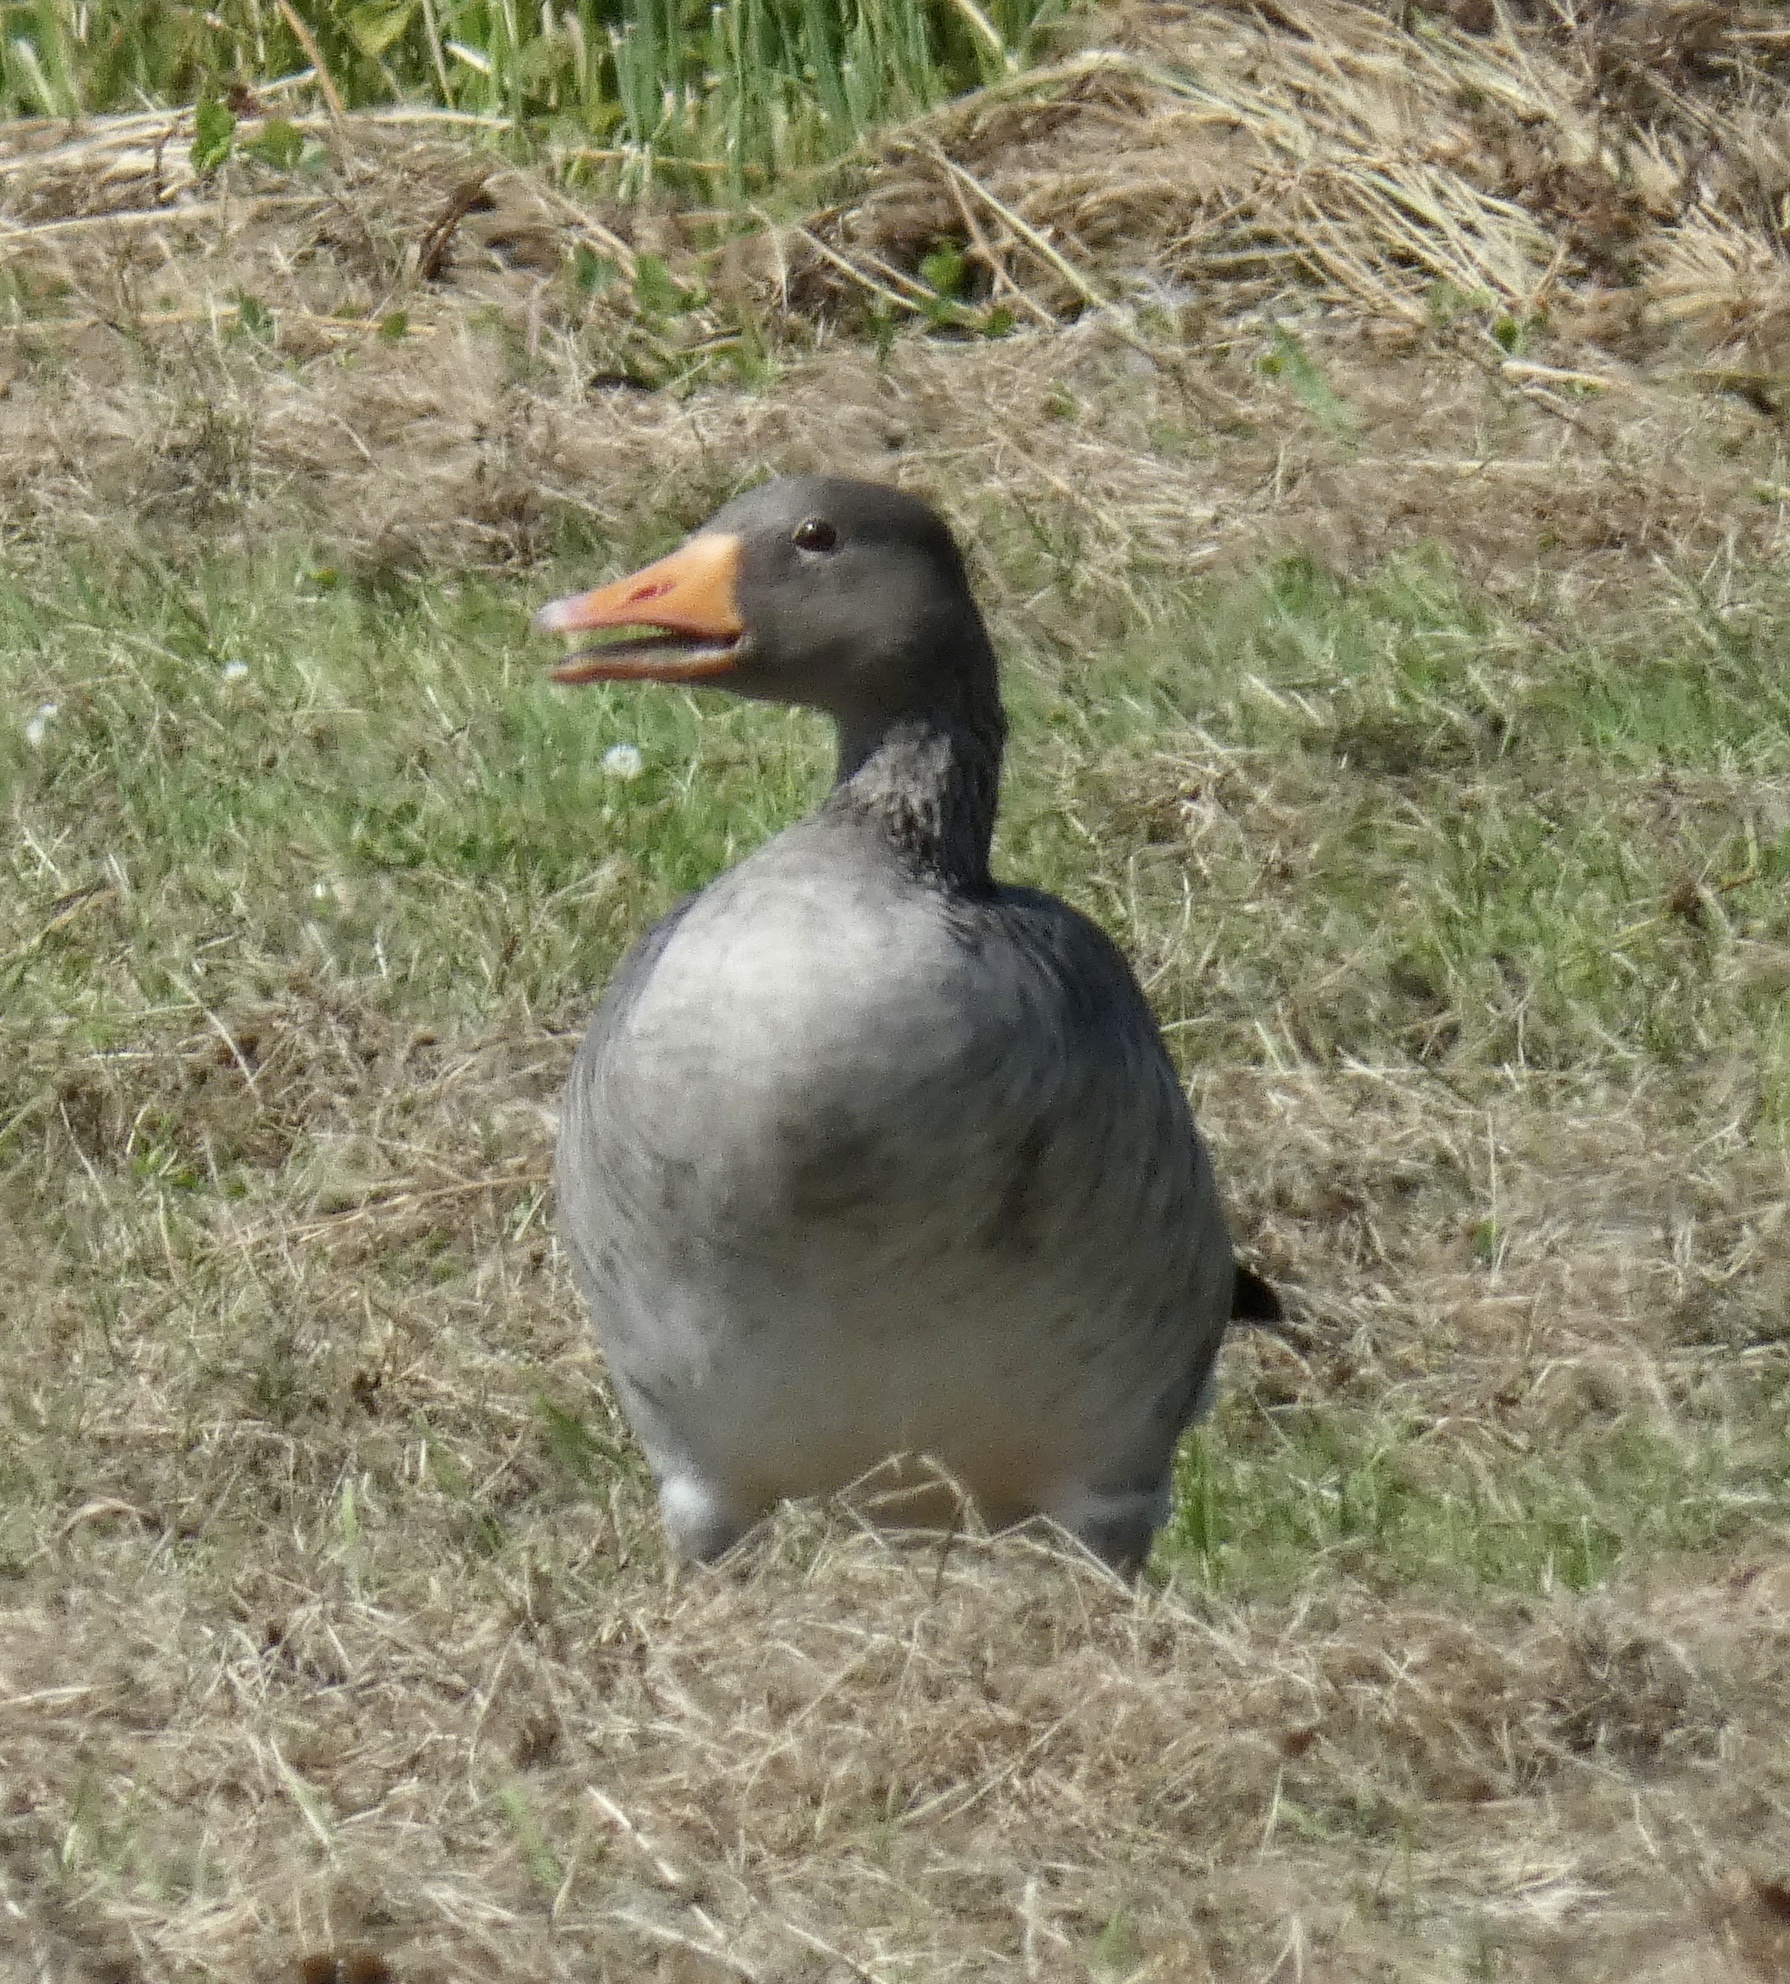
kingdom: Animalia
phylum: Chordata
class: Aves
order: Anseriformes
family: Anatidae
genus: Anser
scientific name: Anser anser
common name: Greylag goose
